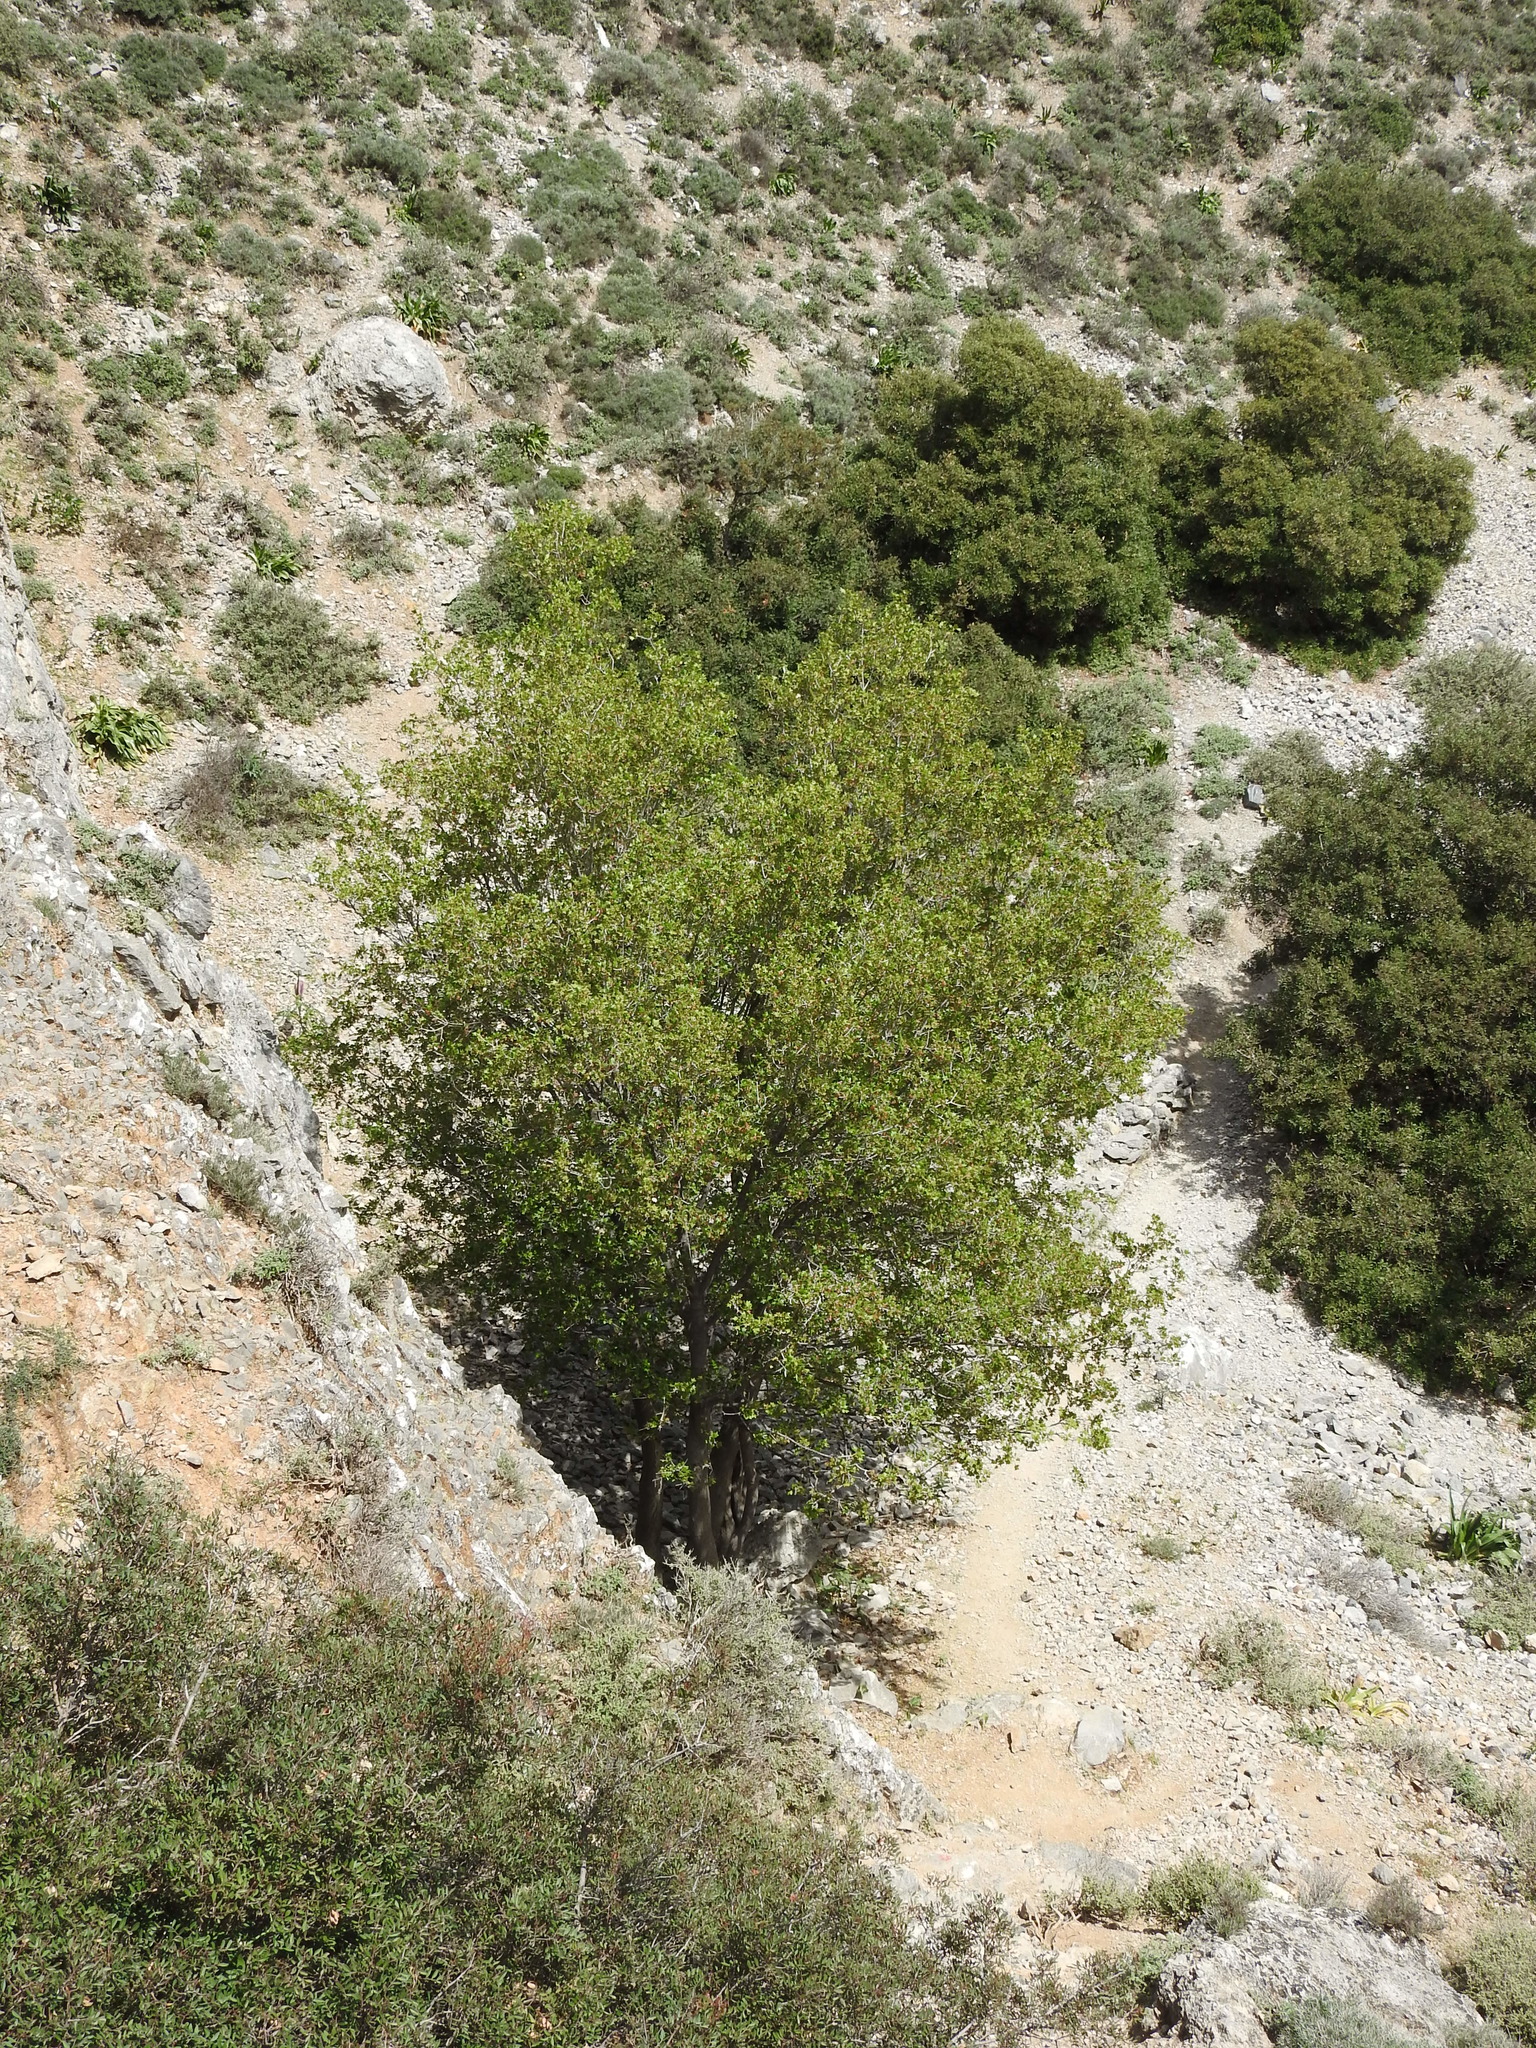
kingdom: Plantae
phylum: Tracheophyta
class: Magnoliopsida
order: Sapindales
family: Sapindaceae
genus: Acer
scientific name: Acer sempervirens
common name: Cretan maple
